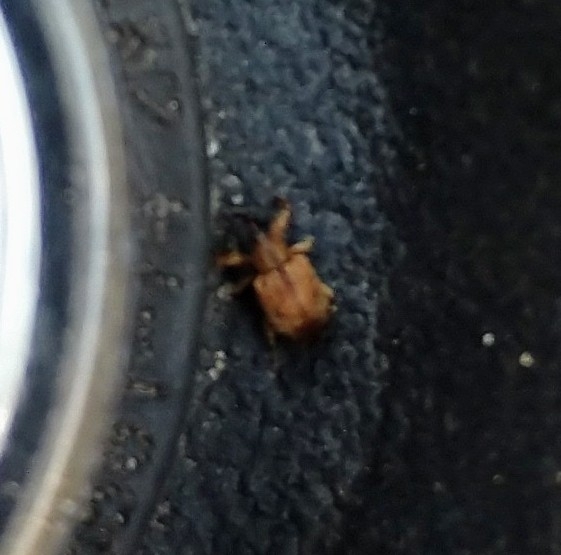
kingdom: Animalia
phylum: Arthropoda
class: Insecta
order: Coleoptera
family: Curculionidae
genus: Ochyromera
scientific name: Ochyromera ligustri
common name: Weevil
